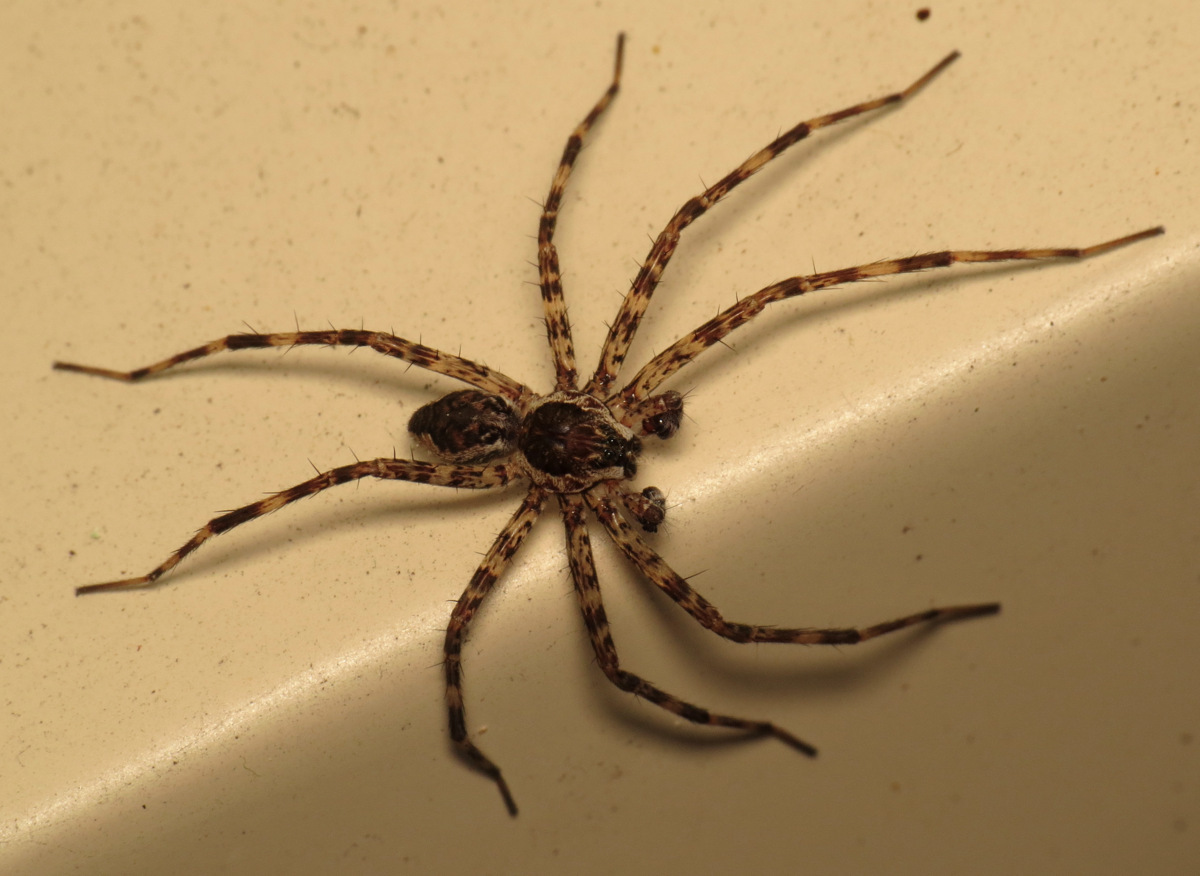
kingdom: Animalia
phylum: Arthropoda
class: Arachnida
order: Araneae
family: Pisauridae
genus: Dolomedes
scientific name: Dolomedes tenebrosus
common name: Dark fishing spider
